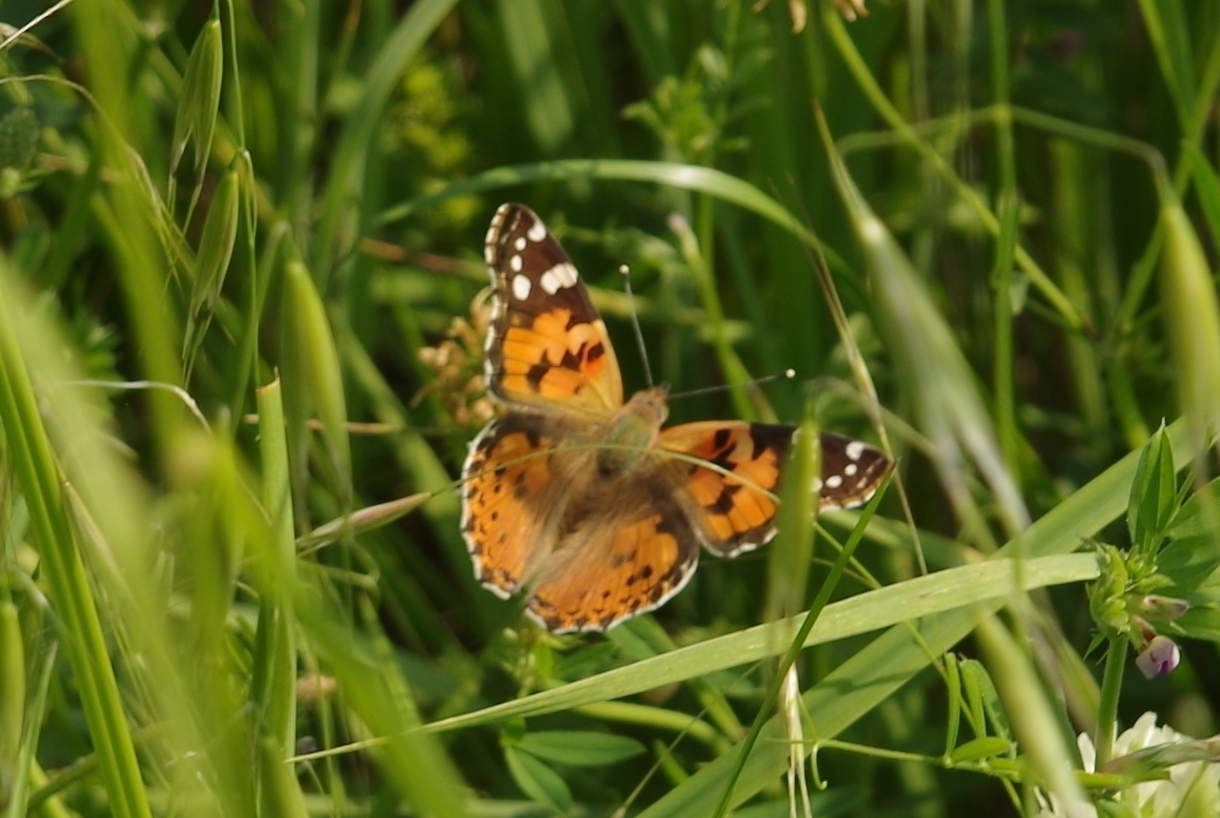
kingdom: Animalia
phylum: Arthropoda
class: Insecta
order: Lepidoptera
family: Nymphalidae
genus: Vanessa
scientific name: Vanessa cardui
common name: Painted lady
